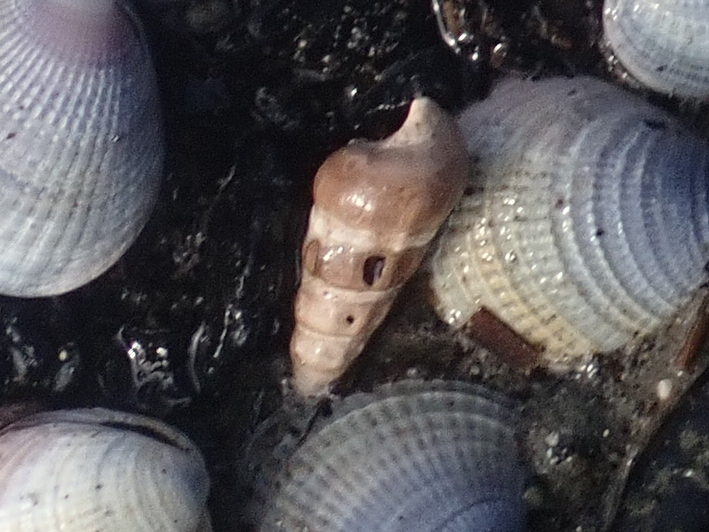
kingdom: Animalia
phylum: Mollusca
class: Gastropoda
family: Batillariidae
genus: Zeacumantus
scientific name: Zeacumantus lutulentus
